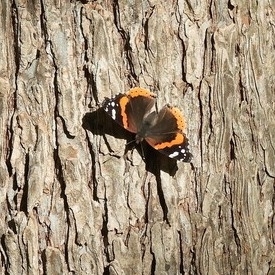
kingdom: Animalia
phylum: Arthropoda
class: Insecta
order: Lepidoptera
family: Nymphalidae
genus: Vanessa
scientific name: Vanessa atalanta
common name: Red admiral
